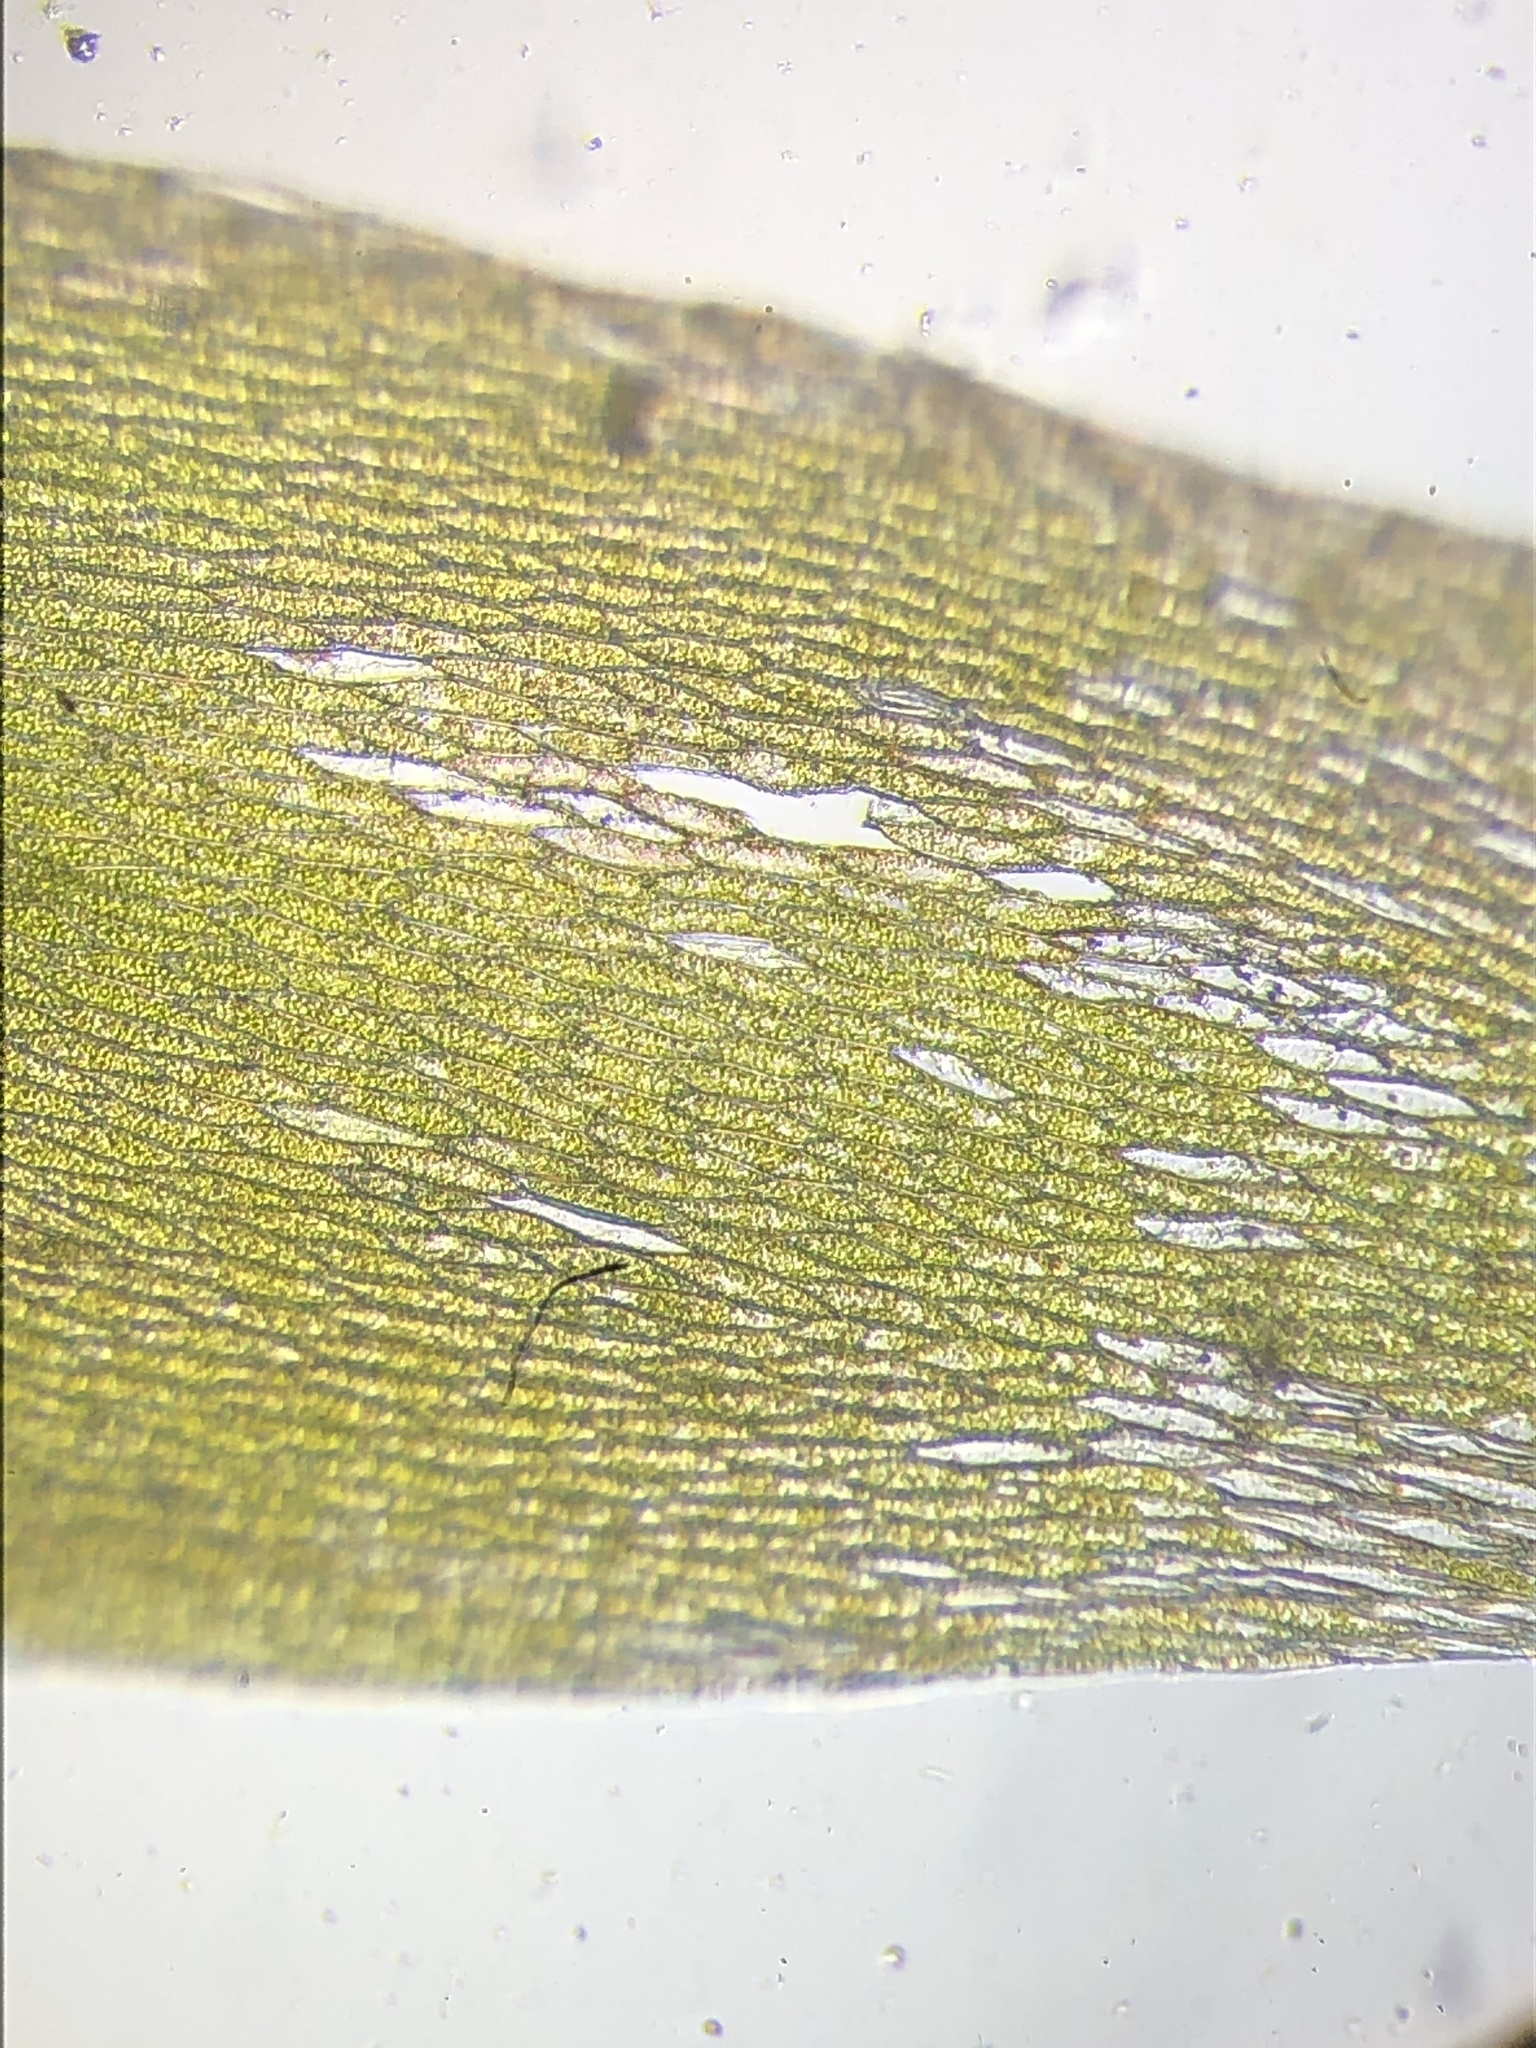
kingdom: Plantae
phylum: Bryophyta
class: Bryopsida
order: Hypnales
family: Plagiotheciaceae
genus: Plagiothecium
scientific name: Plagiothecium nemorale
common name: Woodsy silk-moss
